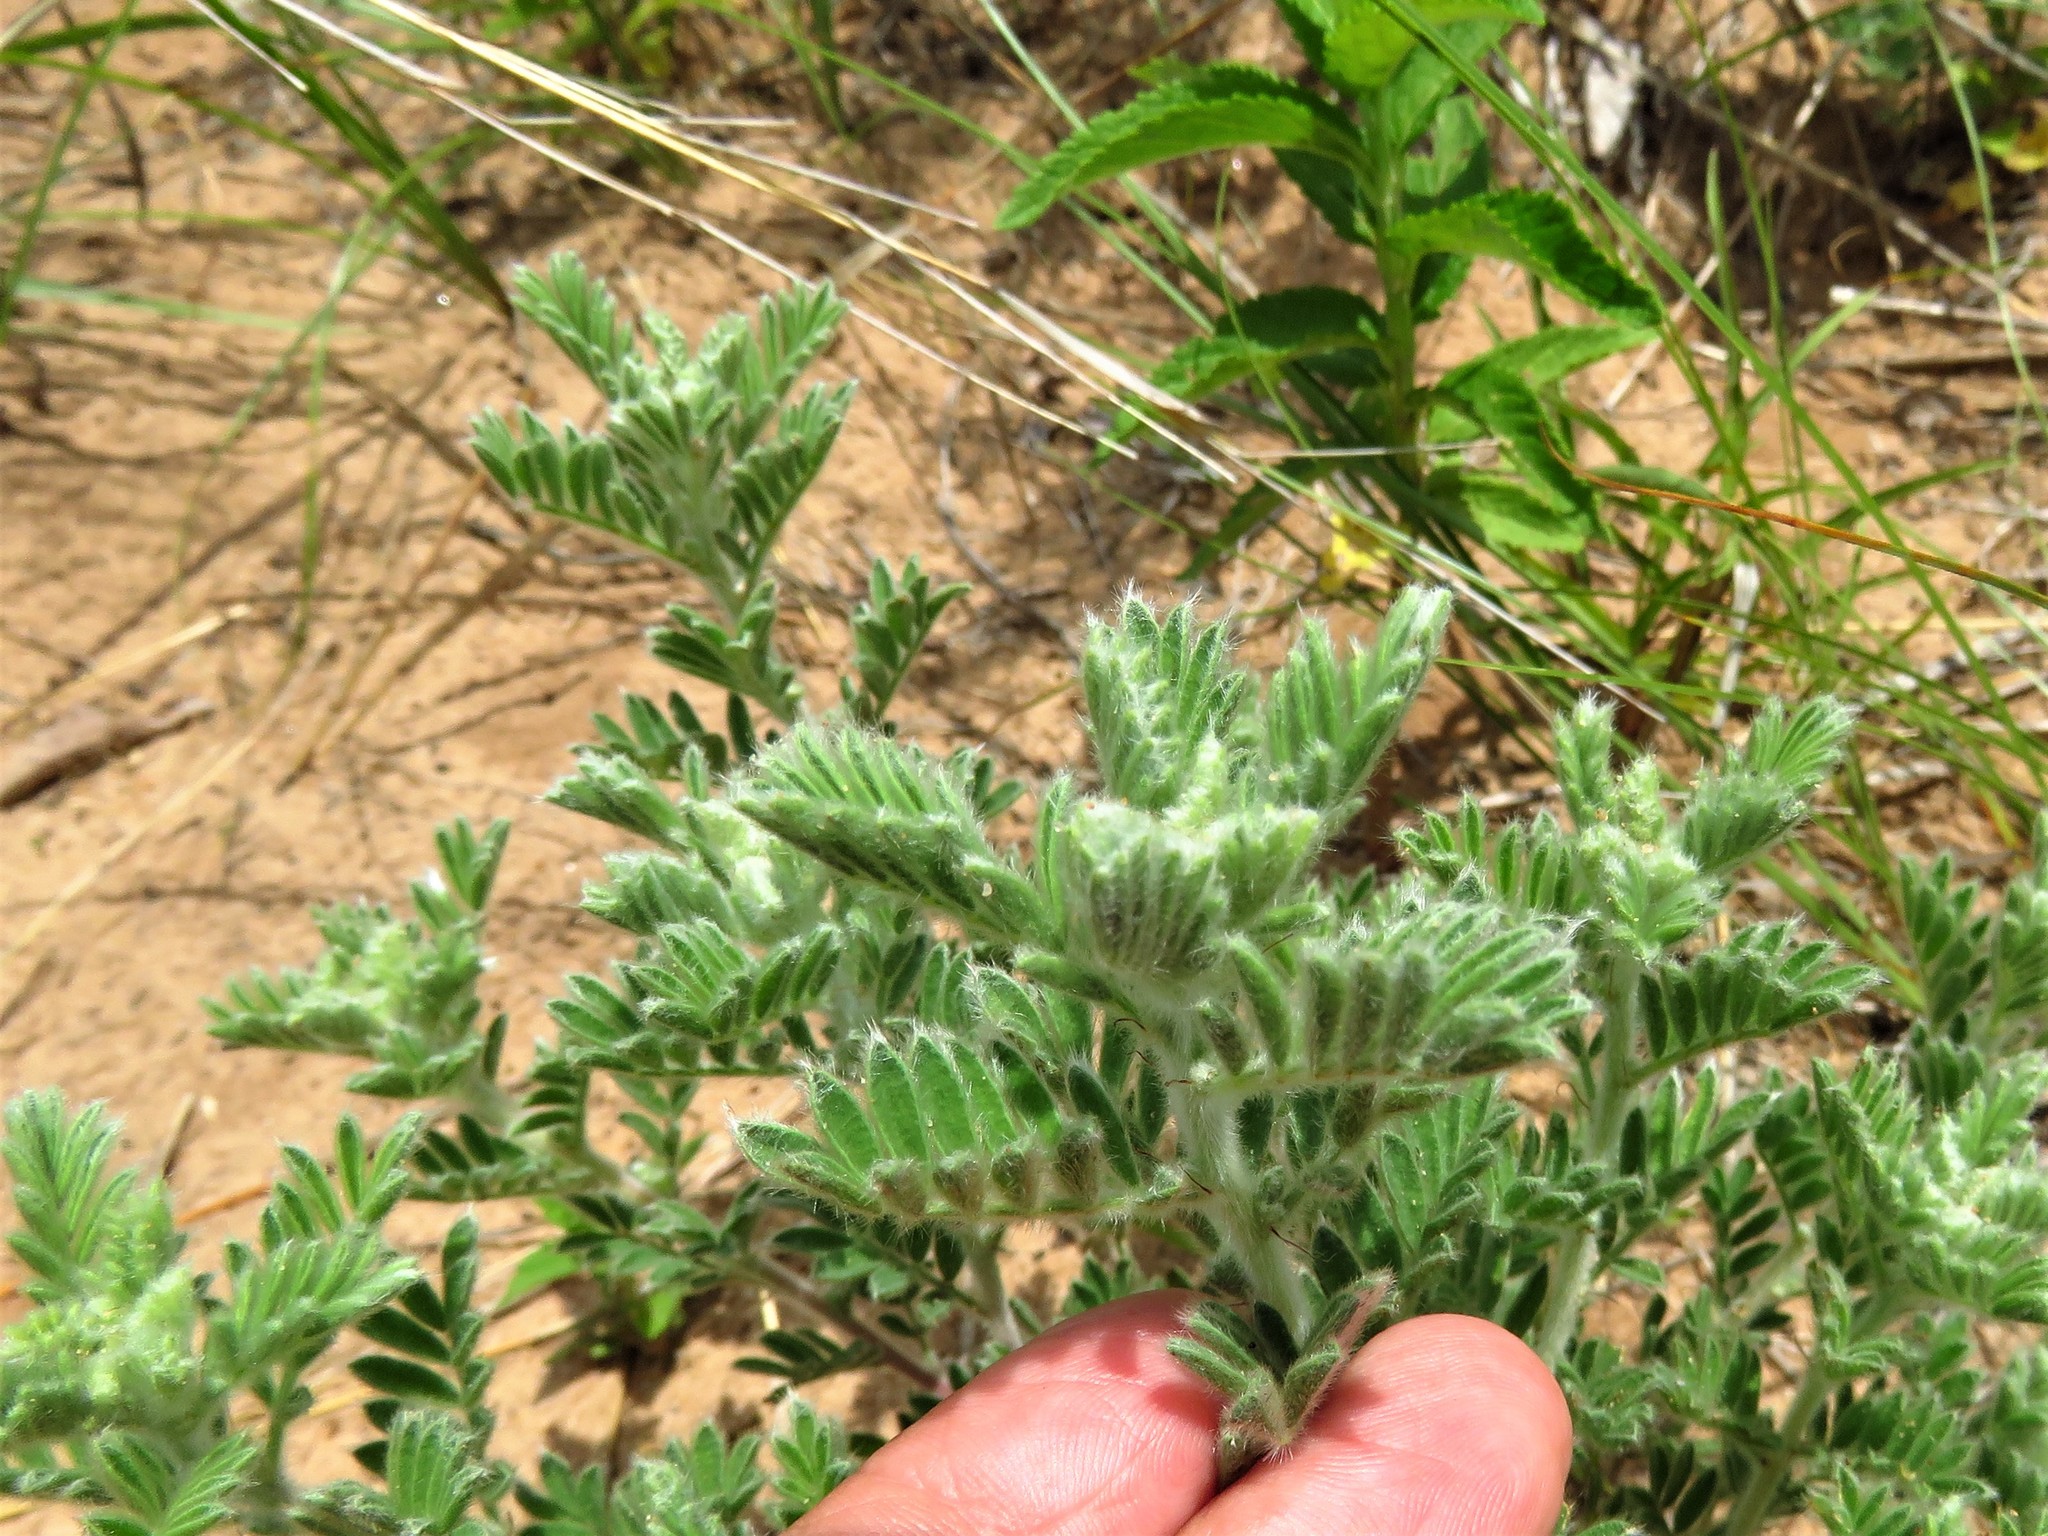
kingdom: Plantae
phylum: Tracheophyta
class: Magnoliopsida
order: Fabales
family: Fabaceae
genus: Tephrosia
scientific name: Tephrosia virginiana
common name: Rabbit-pea
